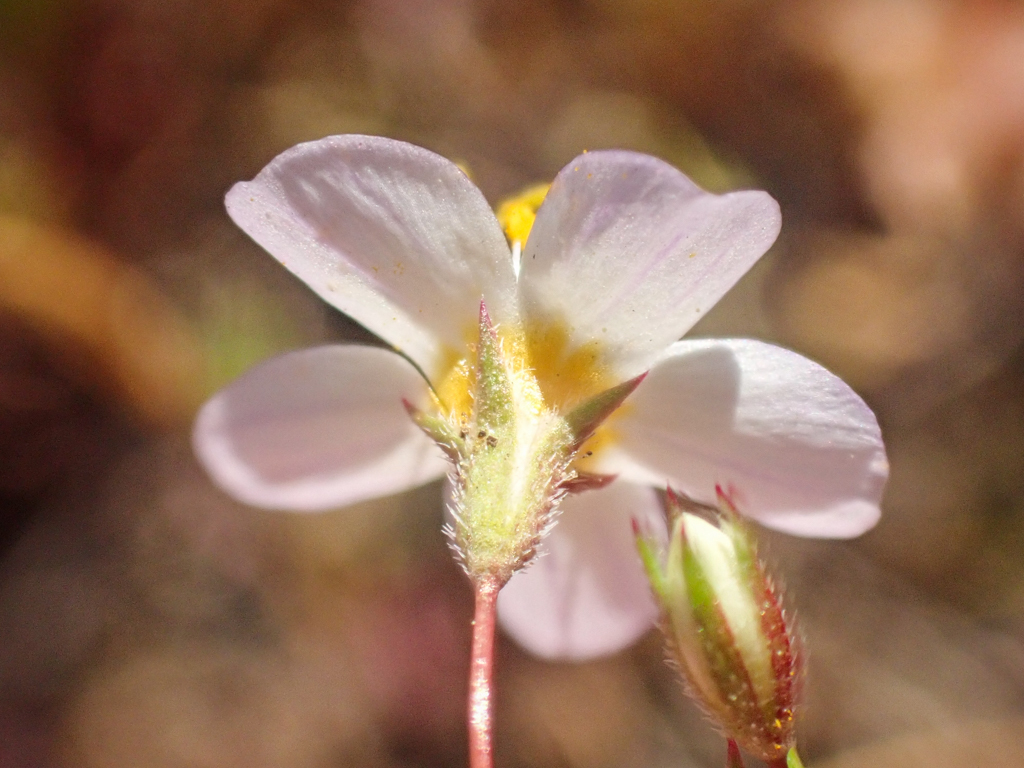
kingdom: Plantae
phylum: Tracheophyta
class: Magnoliopsida
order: Ericales
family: Polemoniaceae
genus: Leptosiphon
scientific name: Leptosiphon filipes
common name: Thread linanthus
